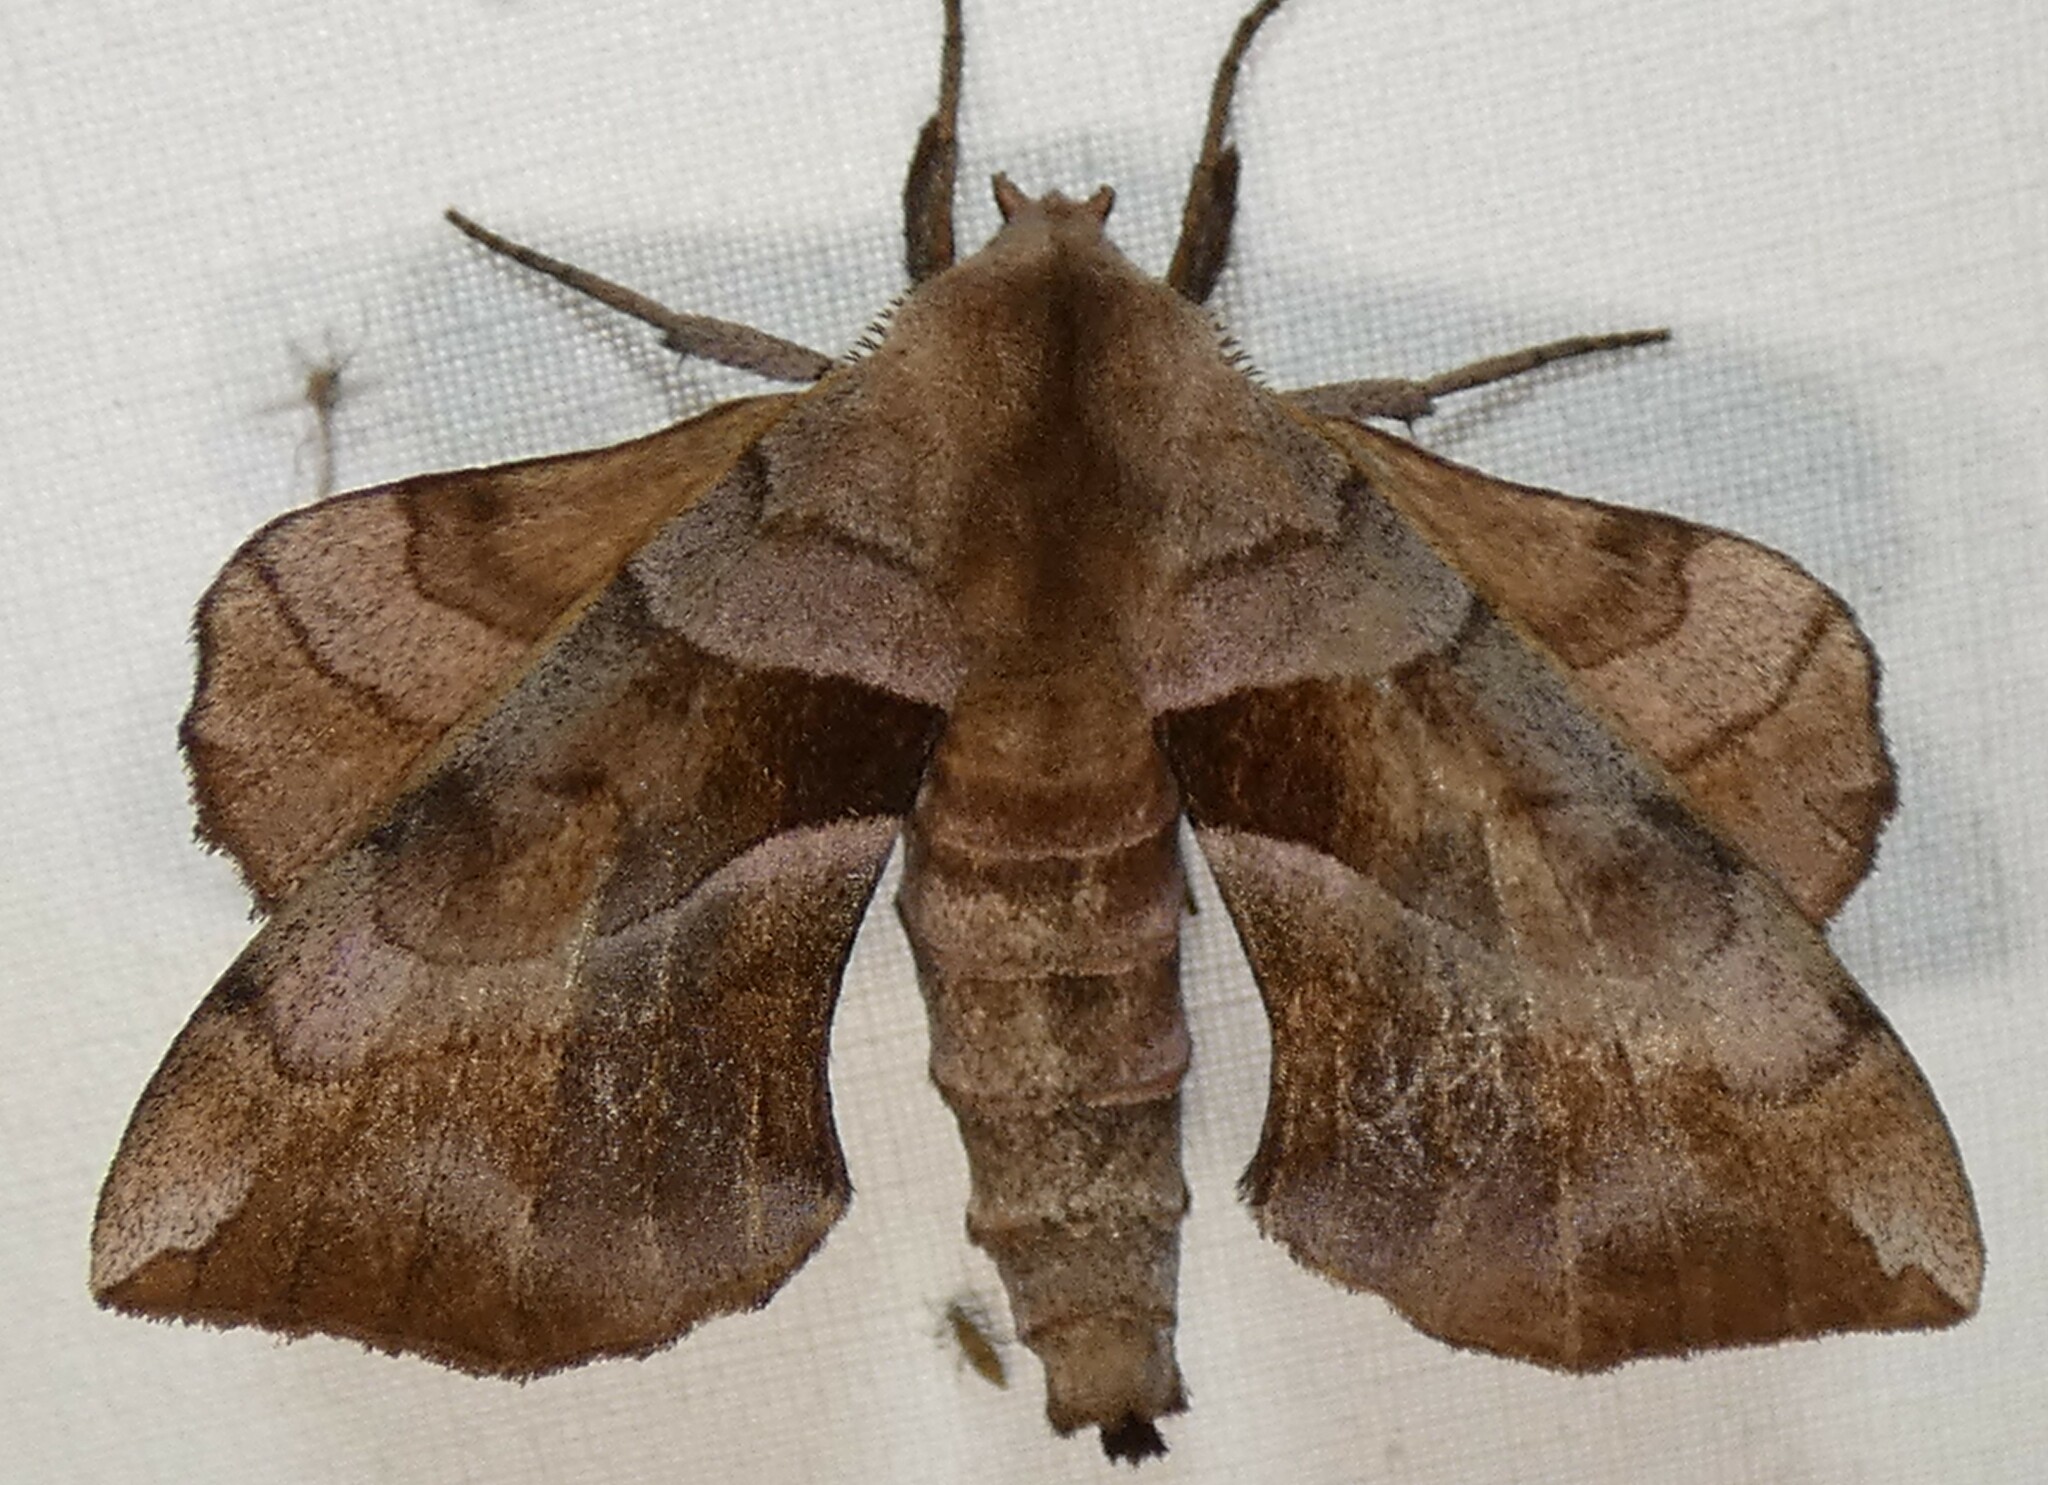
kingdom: Animalia
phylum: Arthropoda
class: Insecta
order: Lepidoptera
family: Sphingidae
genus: Amorpha
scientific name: Amorpha juglandis
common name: Walnut sphinx
